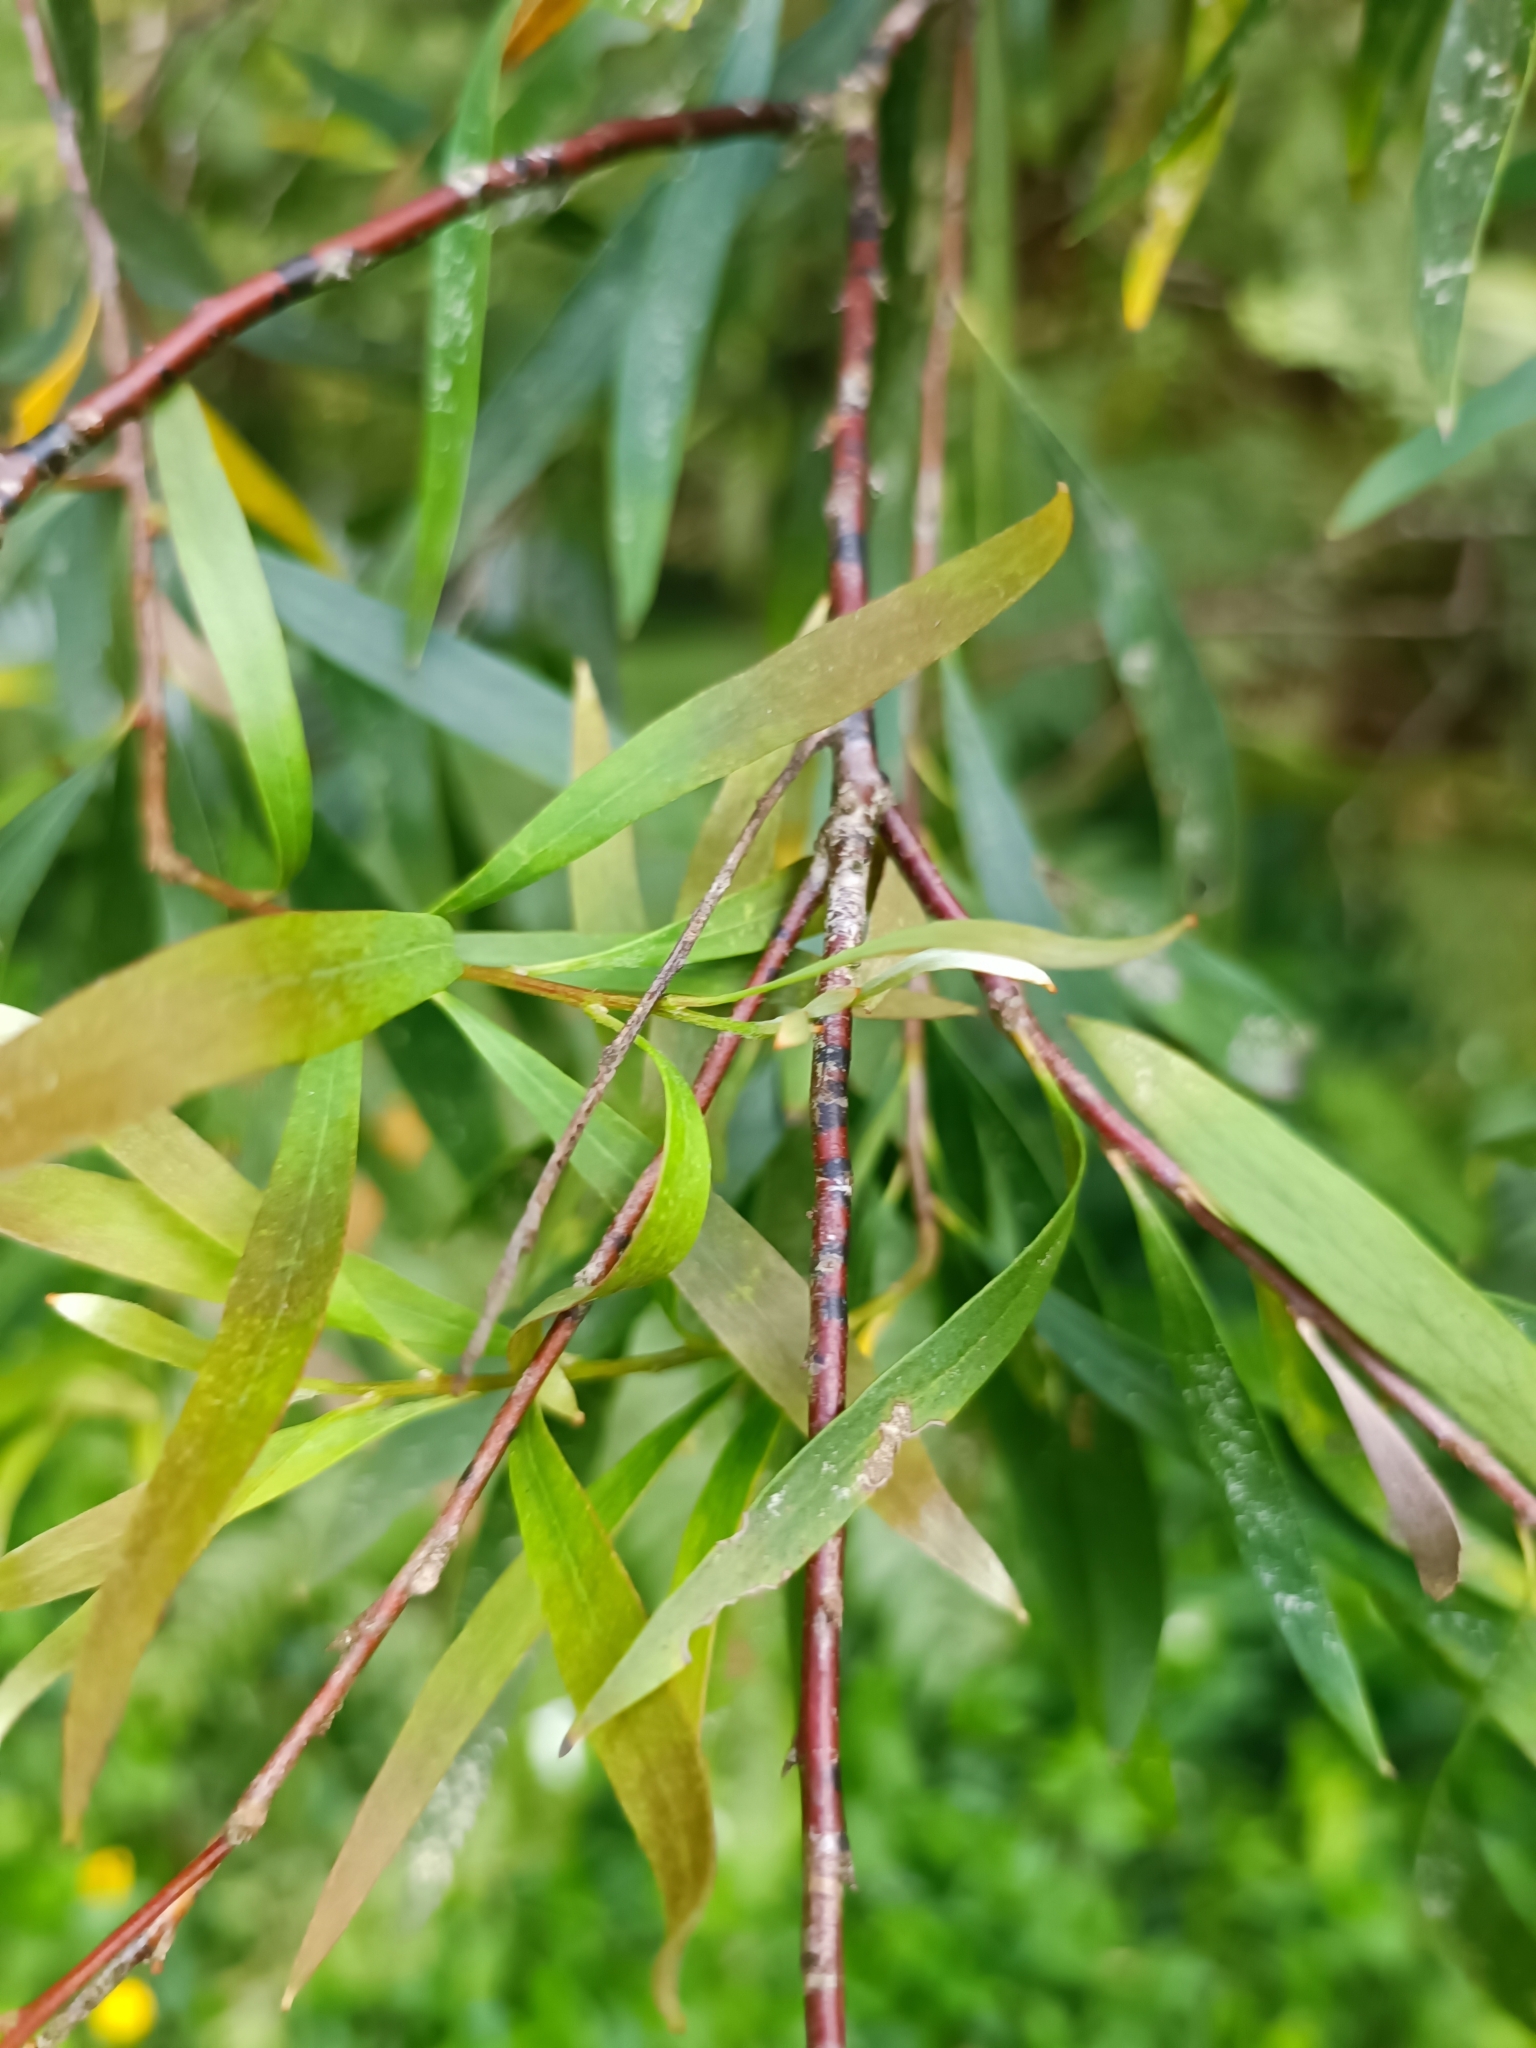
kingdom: Plantae
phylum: Tracheophyta
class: Magnoliopsida
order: Proteales
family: Proteaceae
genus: Hakea
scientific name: Hakea salicifolia
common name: Willow hakea
